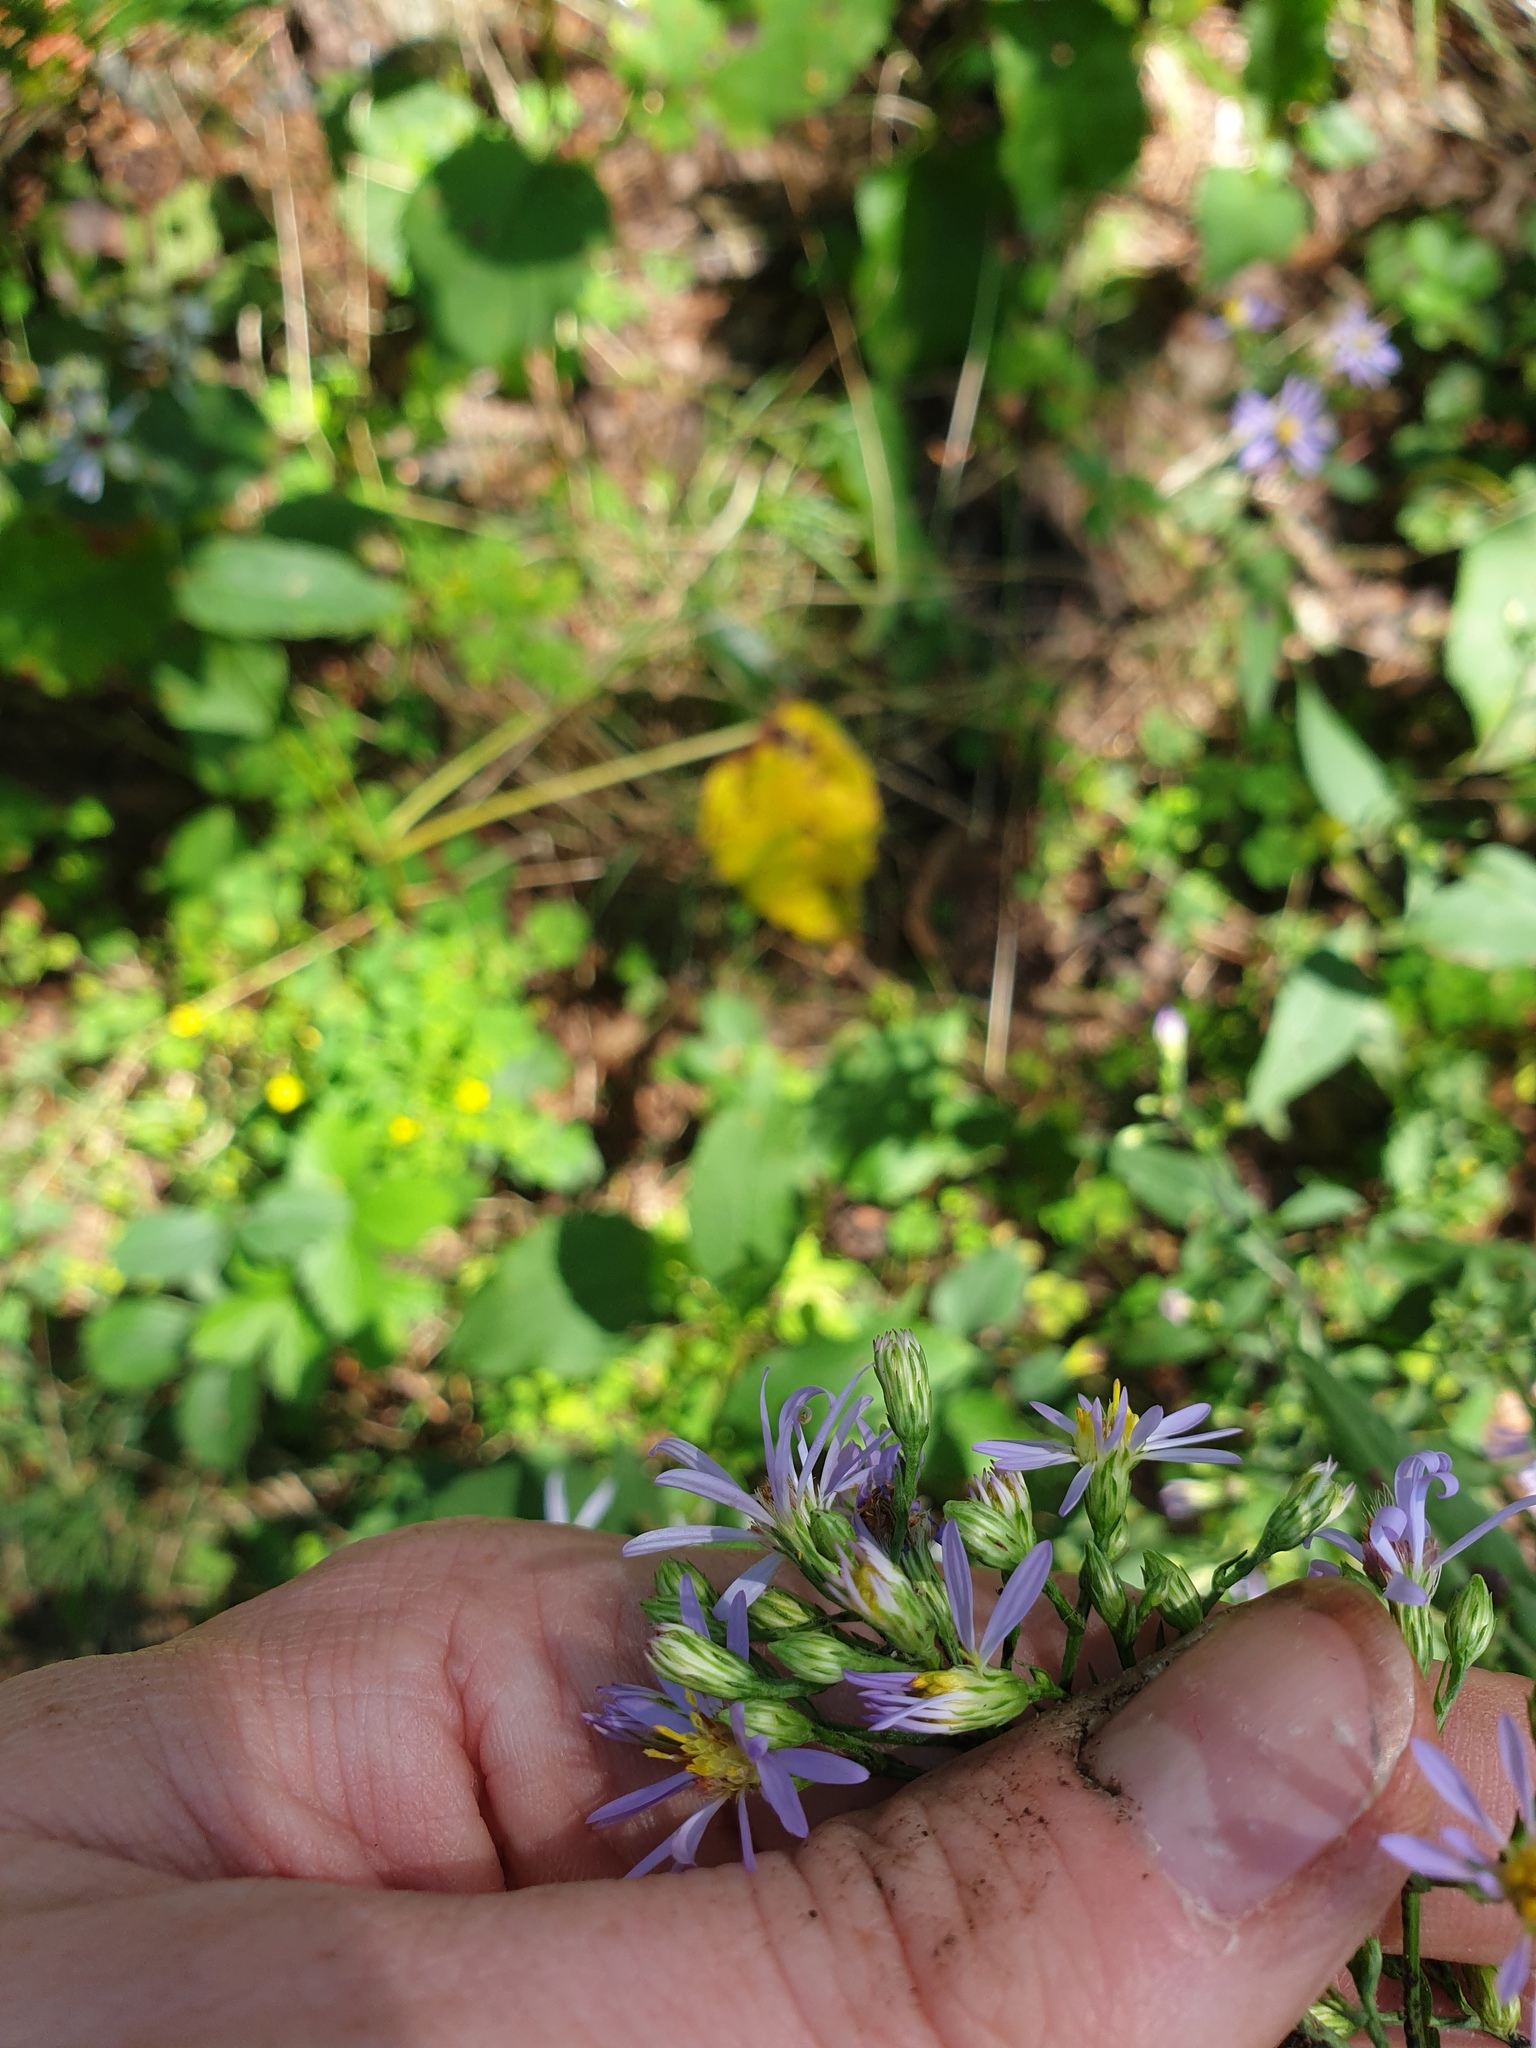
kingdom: Plantae
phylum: Tracheophyta
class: Magnoliopsida
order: Asterales
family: Asteraceae
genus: Symphyotrichum
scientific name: Symphyotrichum ciliolatum
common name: Fringed blue aster
